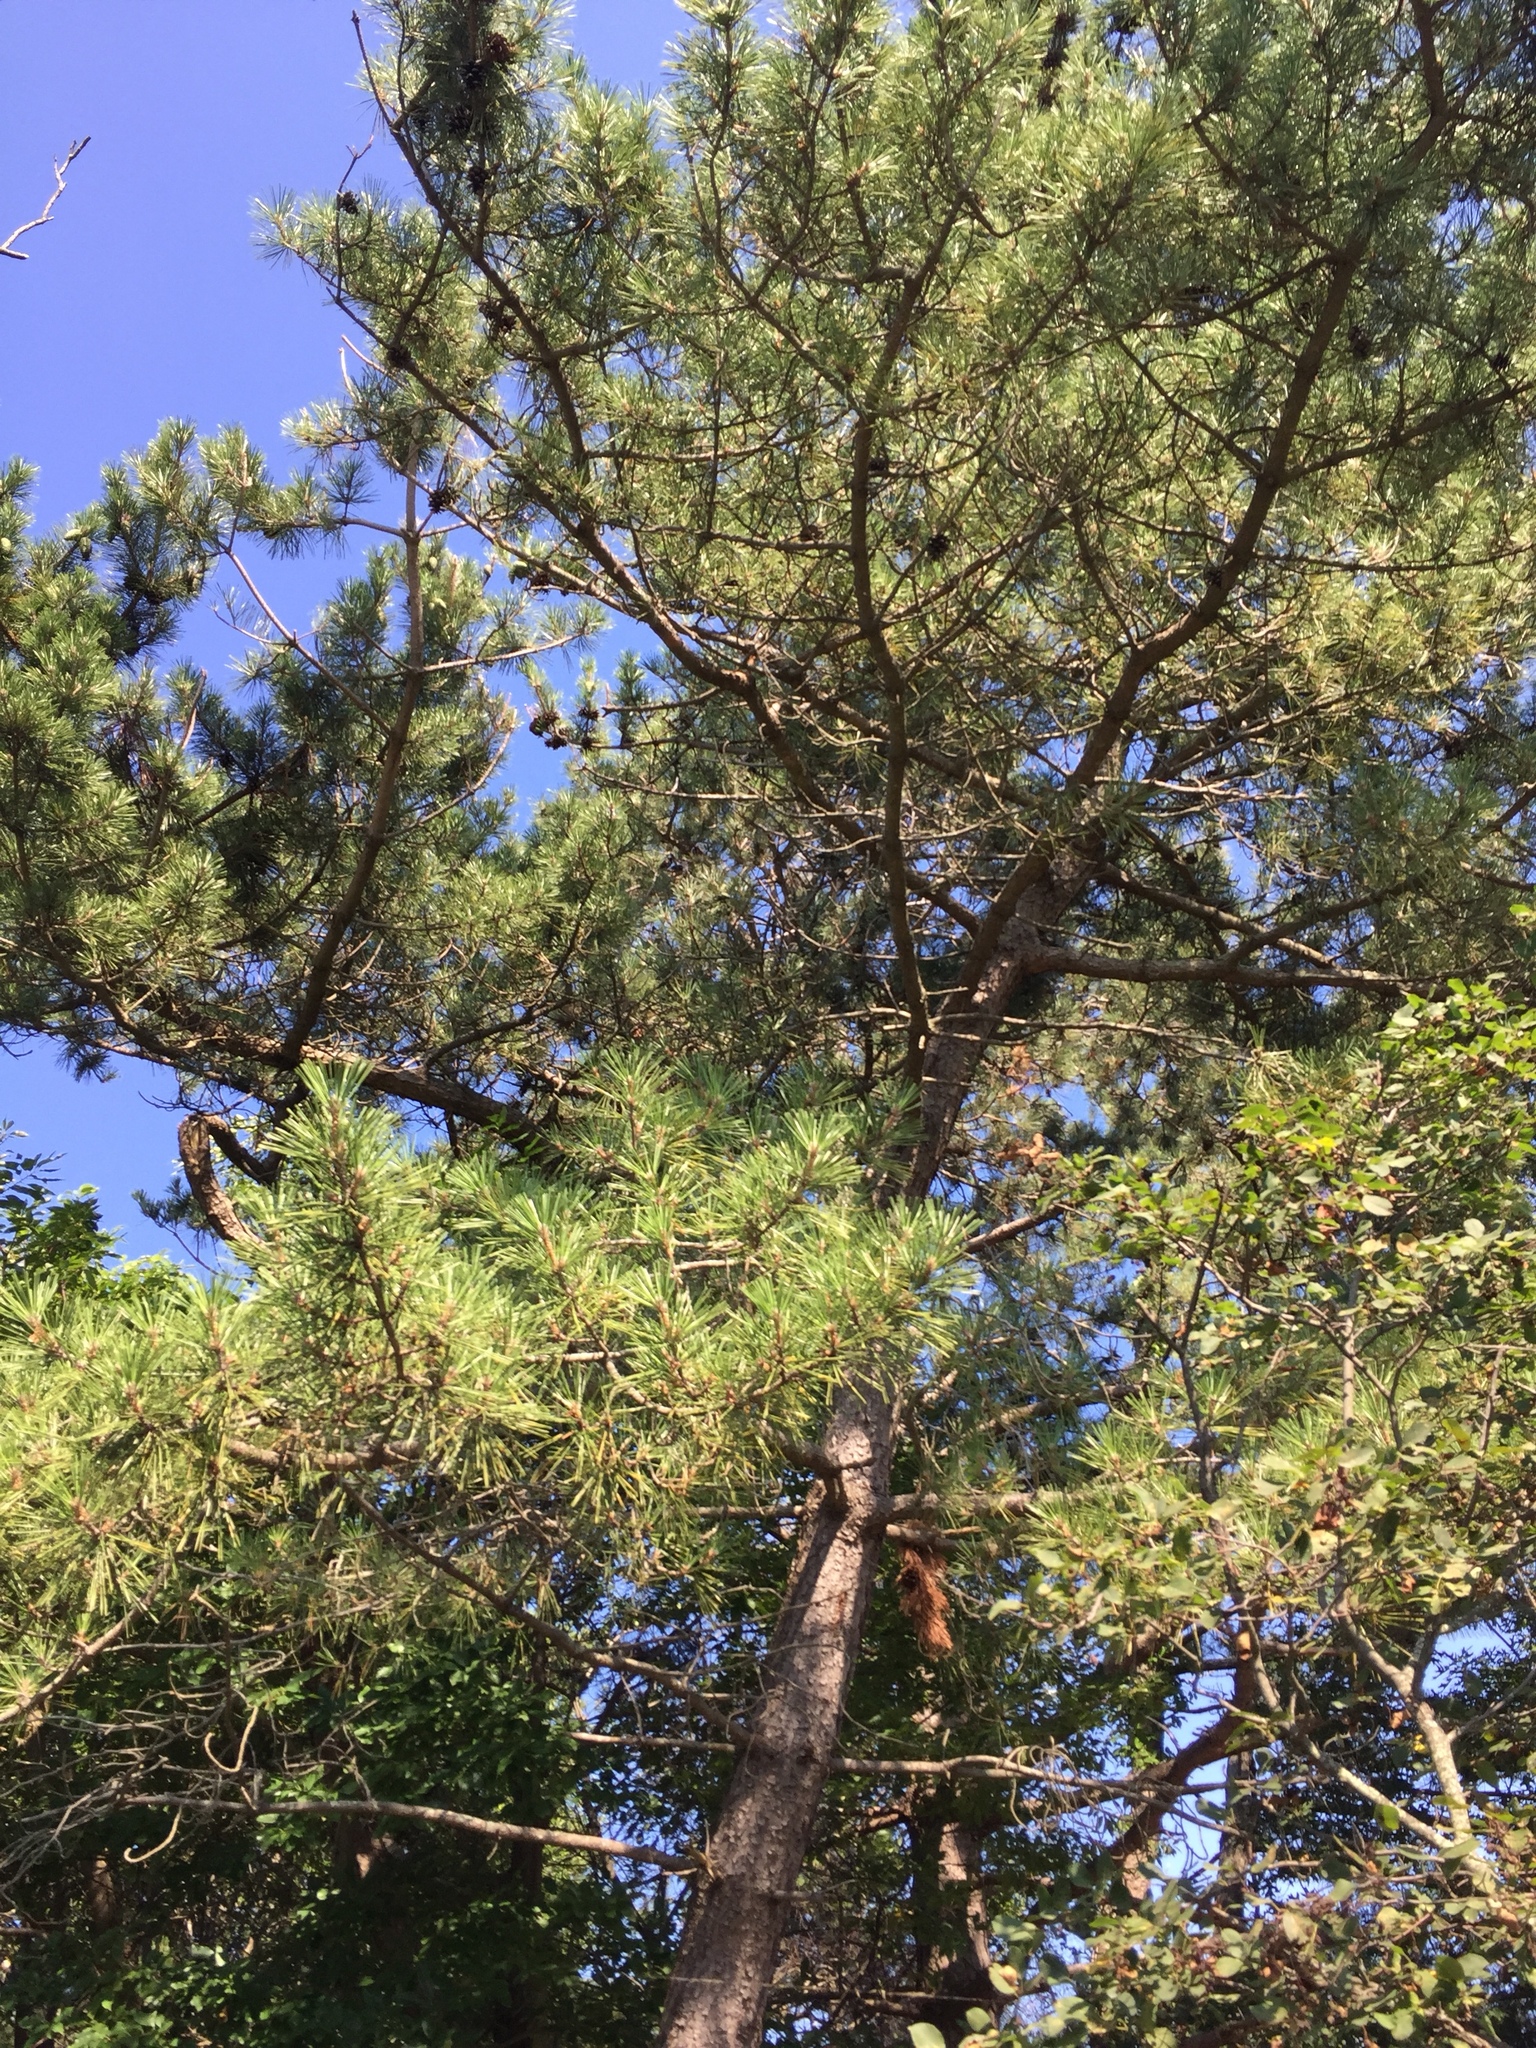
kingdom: Plantae
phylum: Tracheophyta
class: Pinopsida
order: Pinales
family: Pinaceae
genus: Pinus
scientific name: Pinus rigida
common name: Pitch pine
